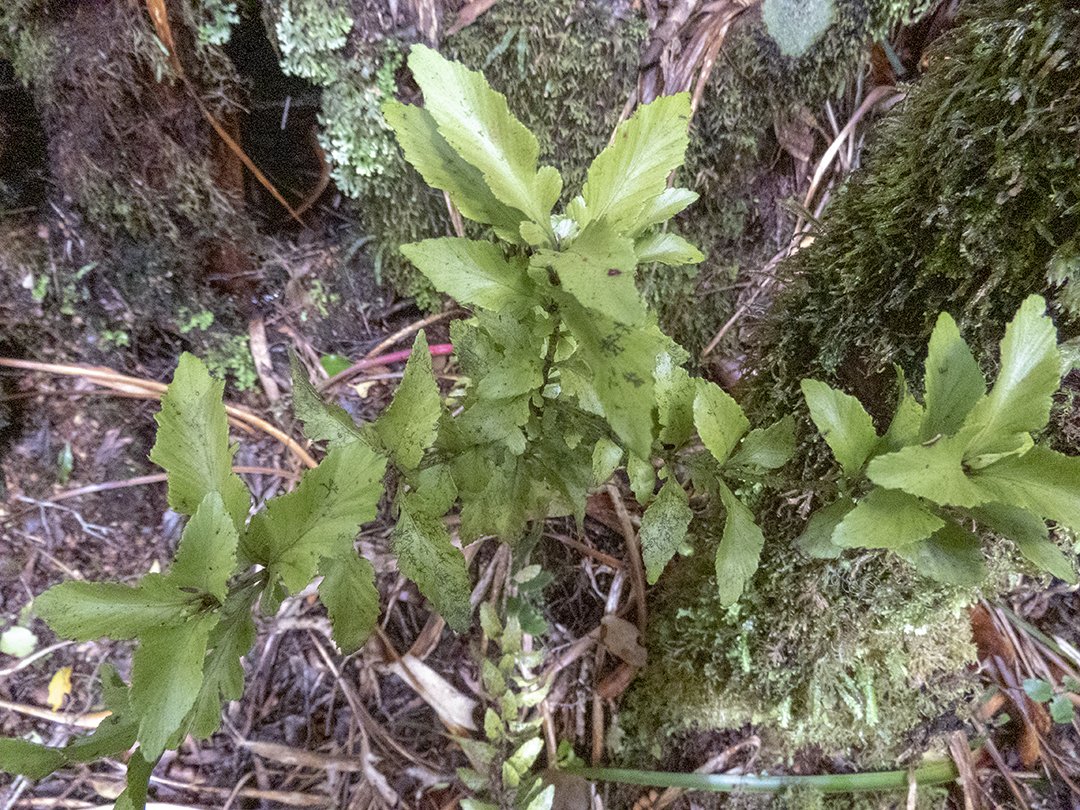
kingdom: Plantae
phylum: Tracheophyta
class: Pinopsida
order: Pinales
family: Phyllocladaceae
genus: Phyllocladus
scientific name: Phyllocladus trichomanoides
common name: Celery pine
